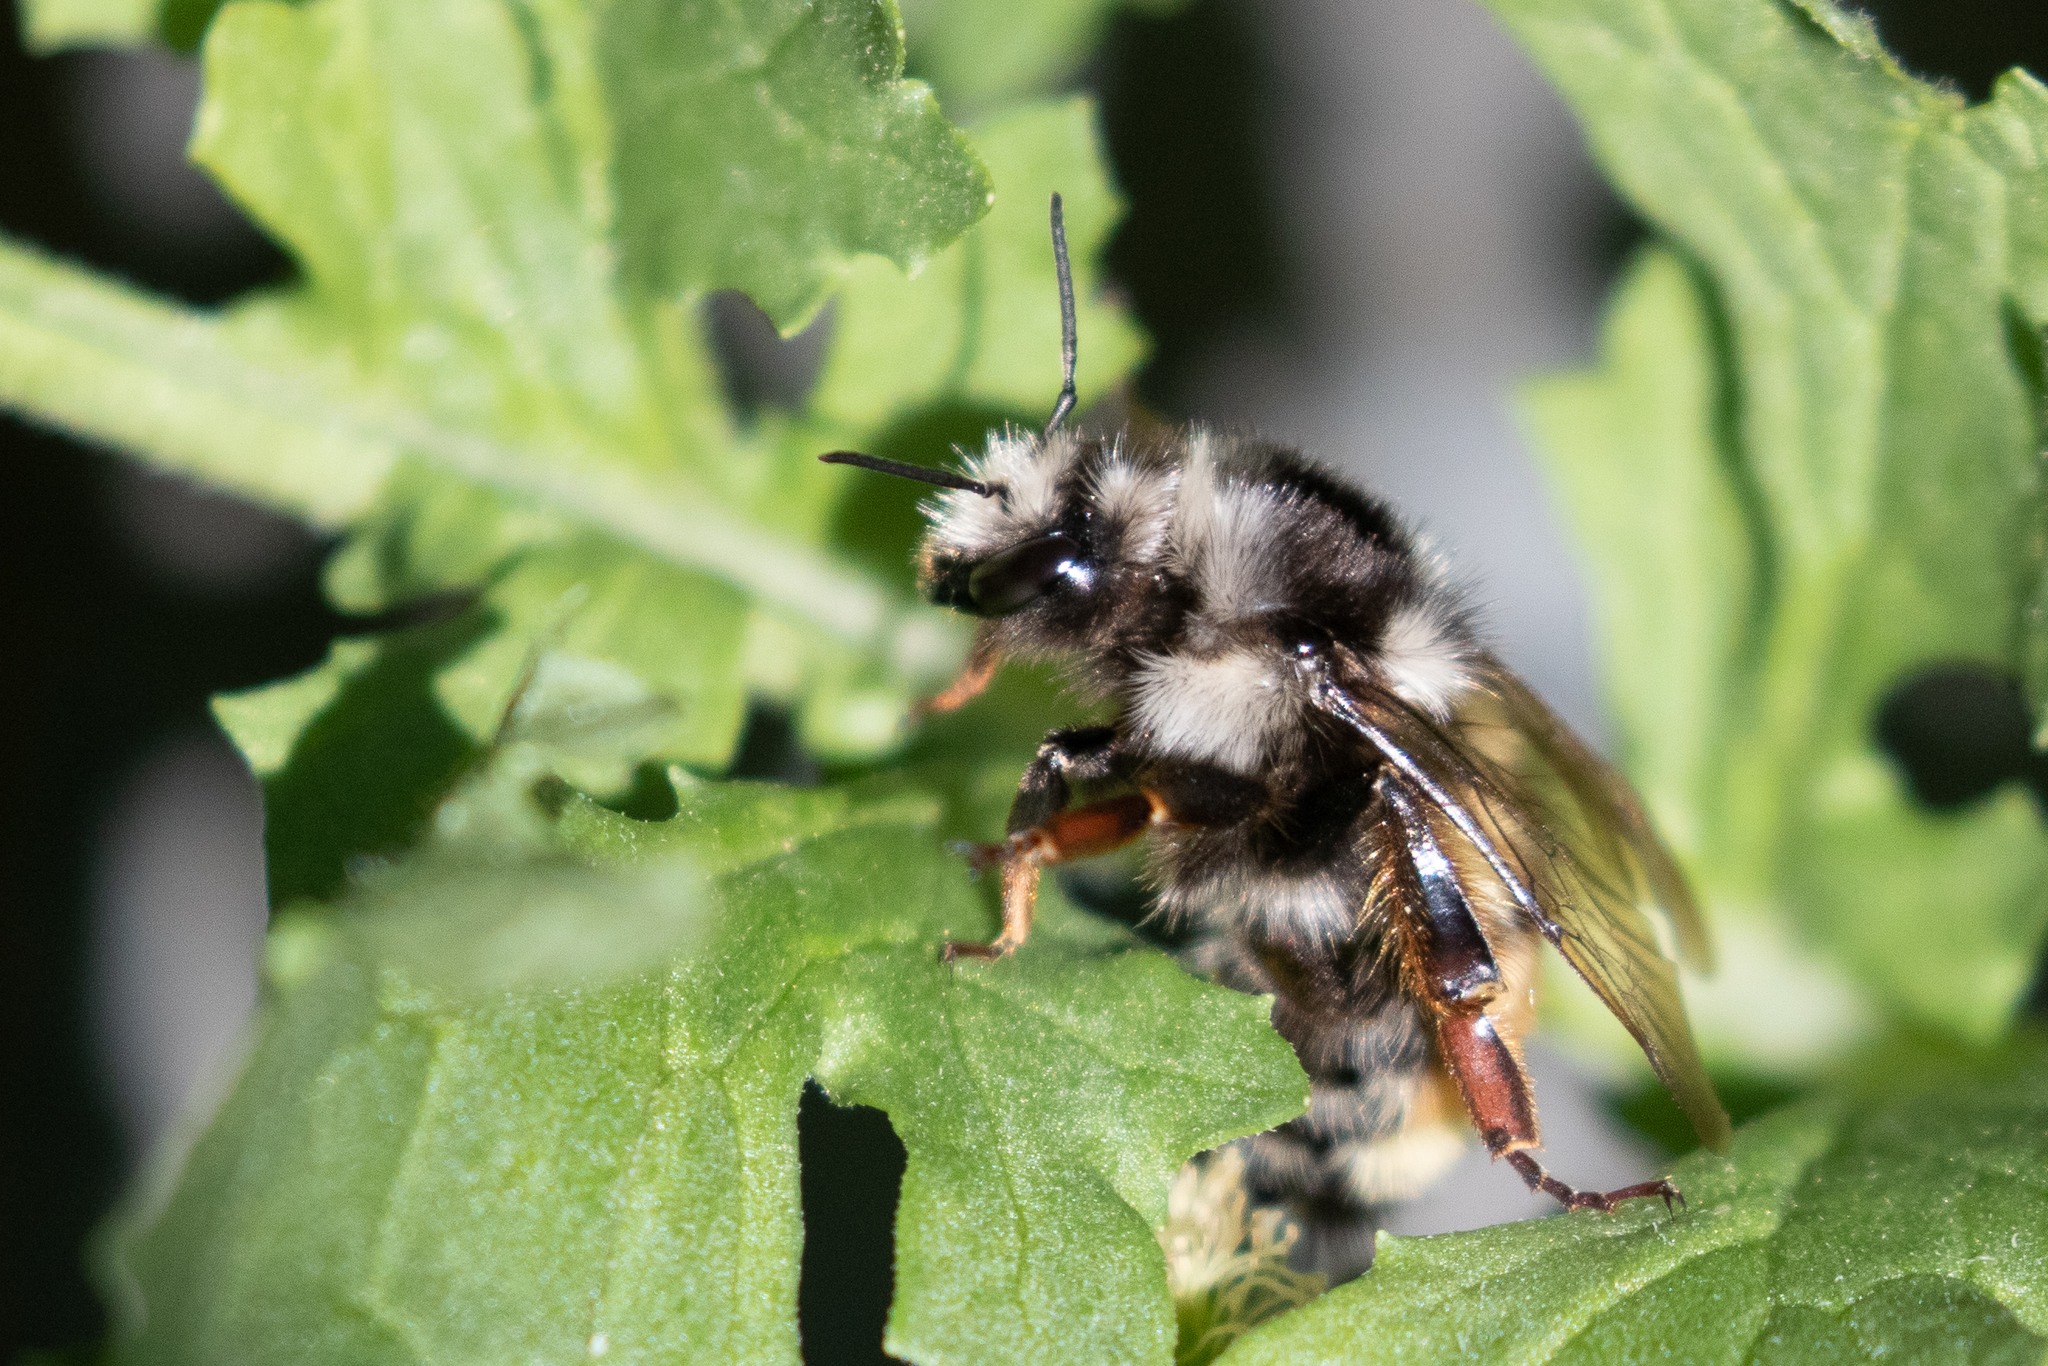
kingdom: Animalia
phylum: Arthropoda
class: Insecta
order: Hymenoptera
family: Apidae
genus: Bombus
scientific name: Bombus vancouverensis
